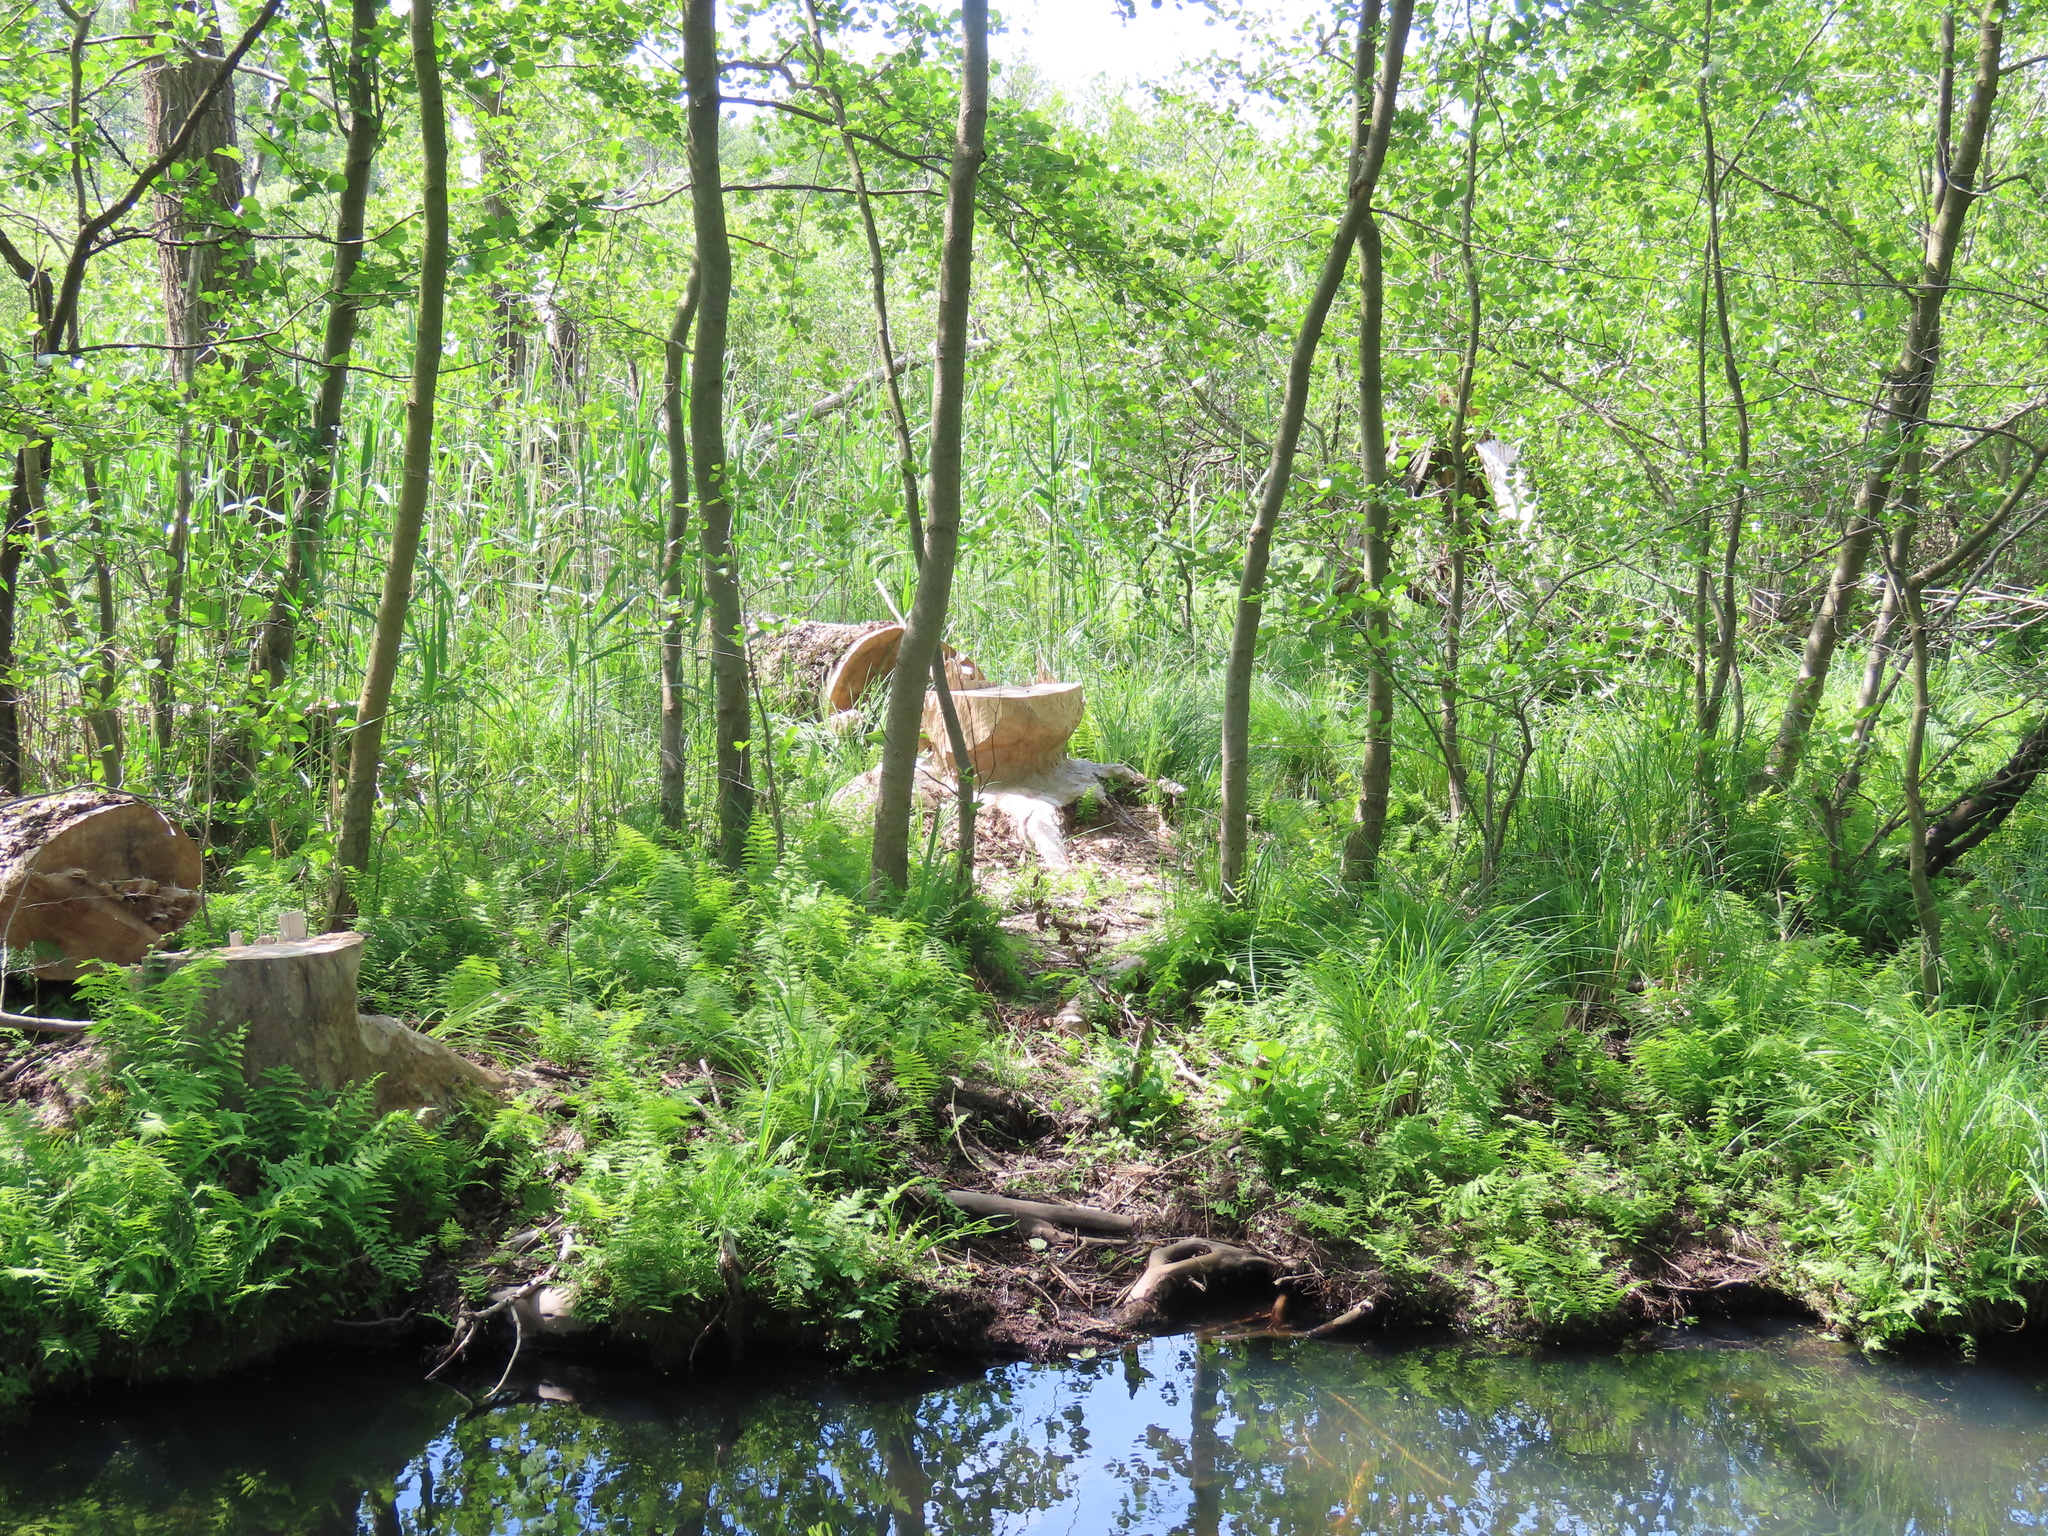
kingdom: Animalia
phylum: Chordata
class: Mammalia
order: Rodentia
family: Castoridae
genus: Castor
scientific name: Castor fiber
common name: Eurasian beaver
